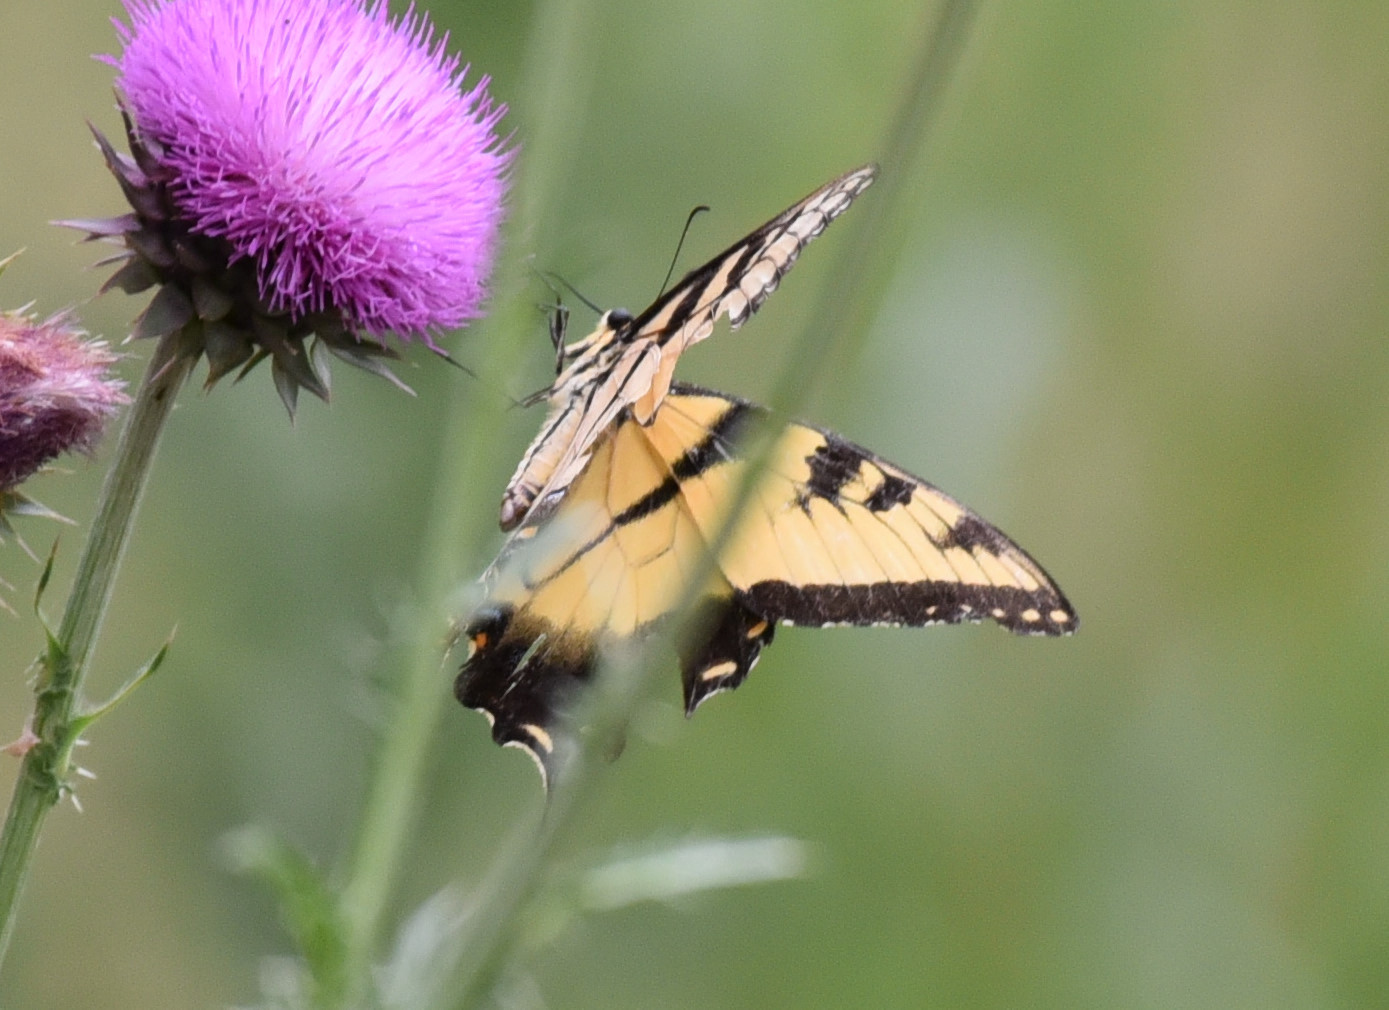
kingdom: Animalia
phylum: Arthropoda
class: Insecta
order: Lepidoptera
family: Papilionidae
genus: Papilio
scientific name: Papilio glaucus
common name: Tiger swallowtail
